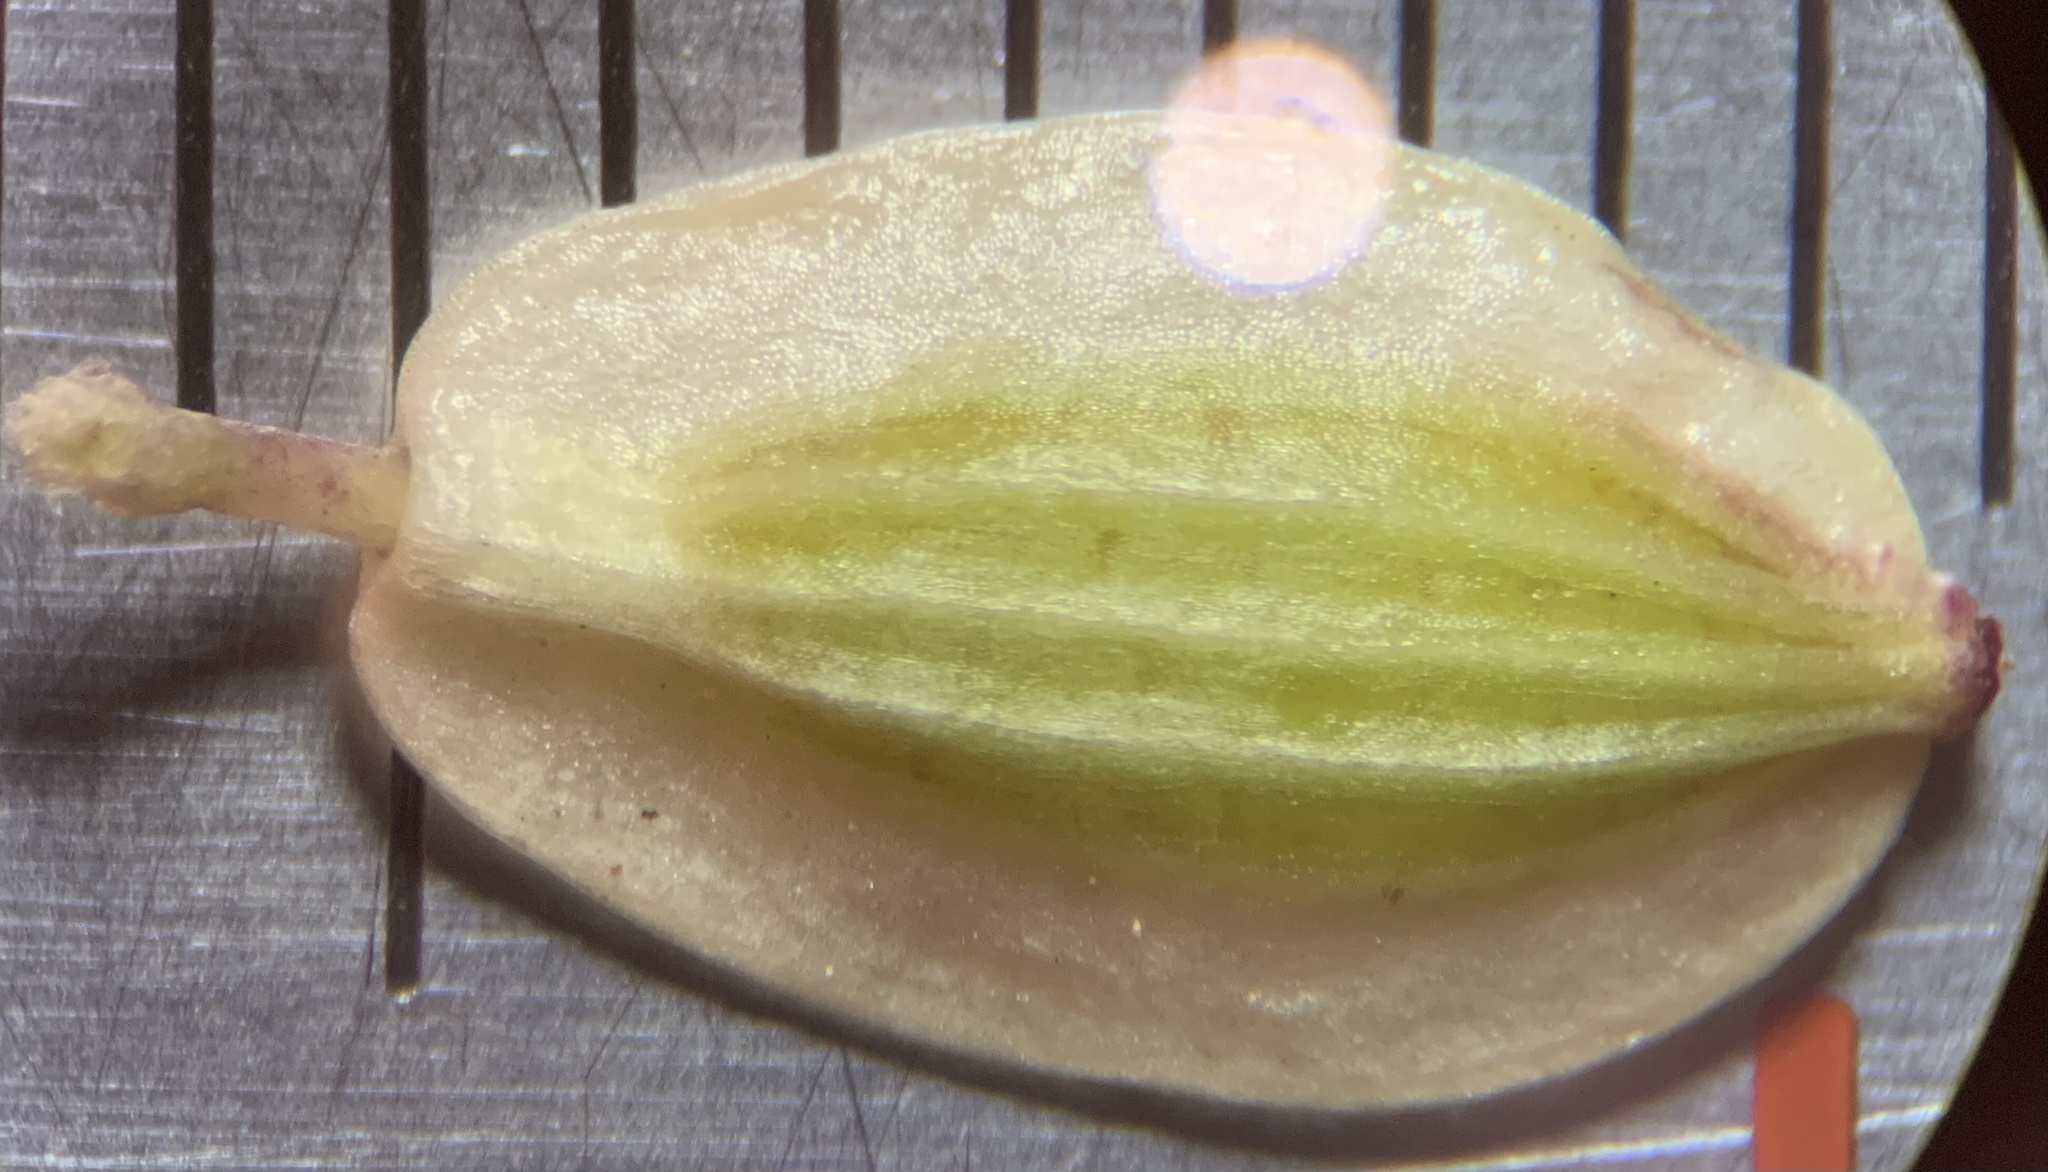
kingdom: Plantae
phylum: Tracheophyta
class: Magnoliopsida
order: Apiales
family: Apiaceae
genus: Lomatium
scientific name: Lomatium simplex
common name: Great basin biscuitroot
